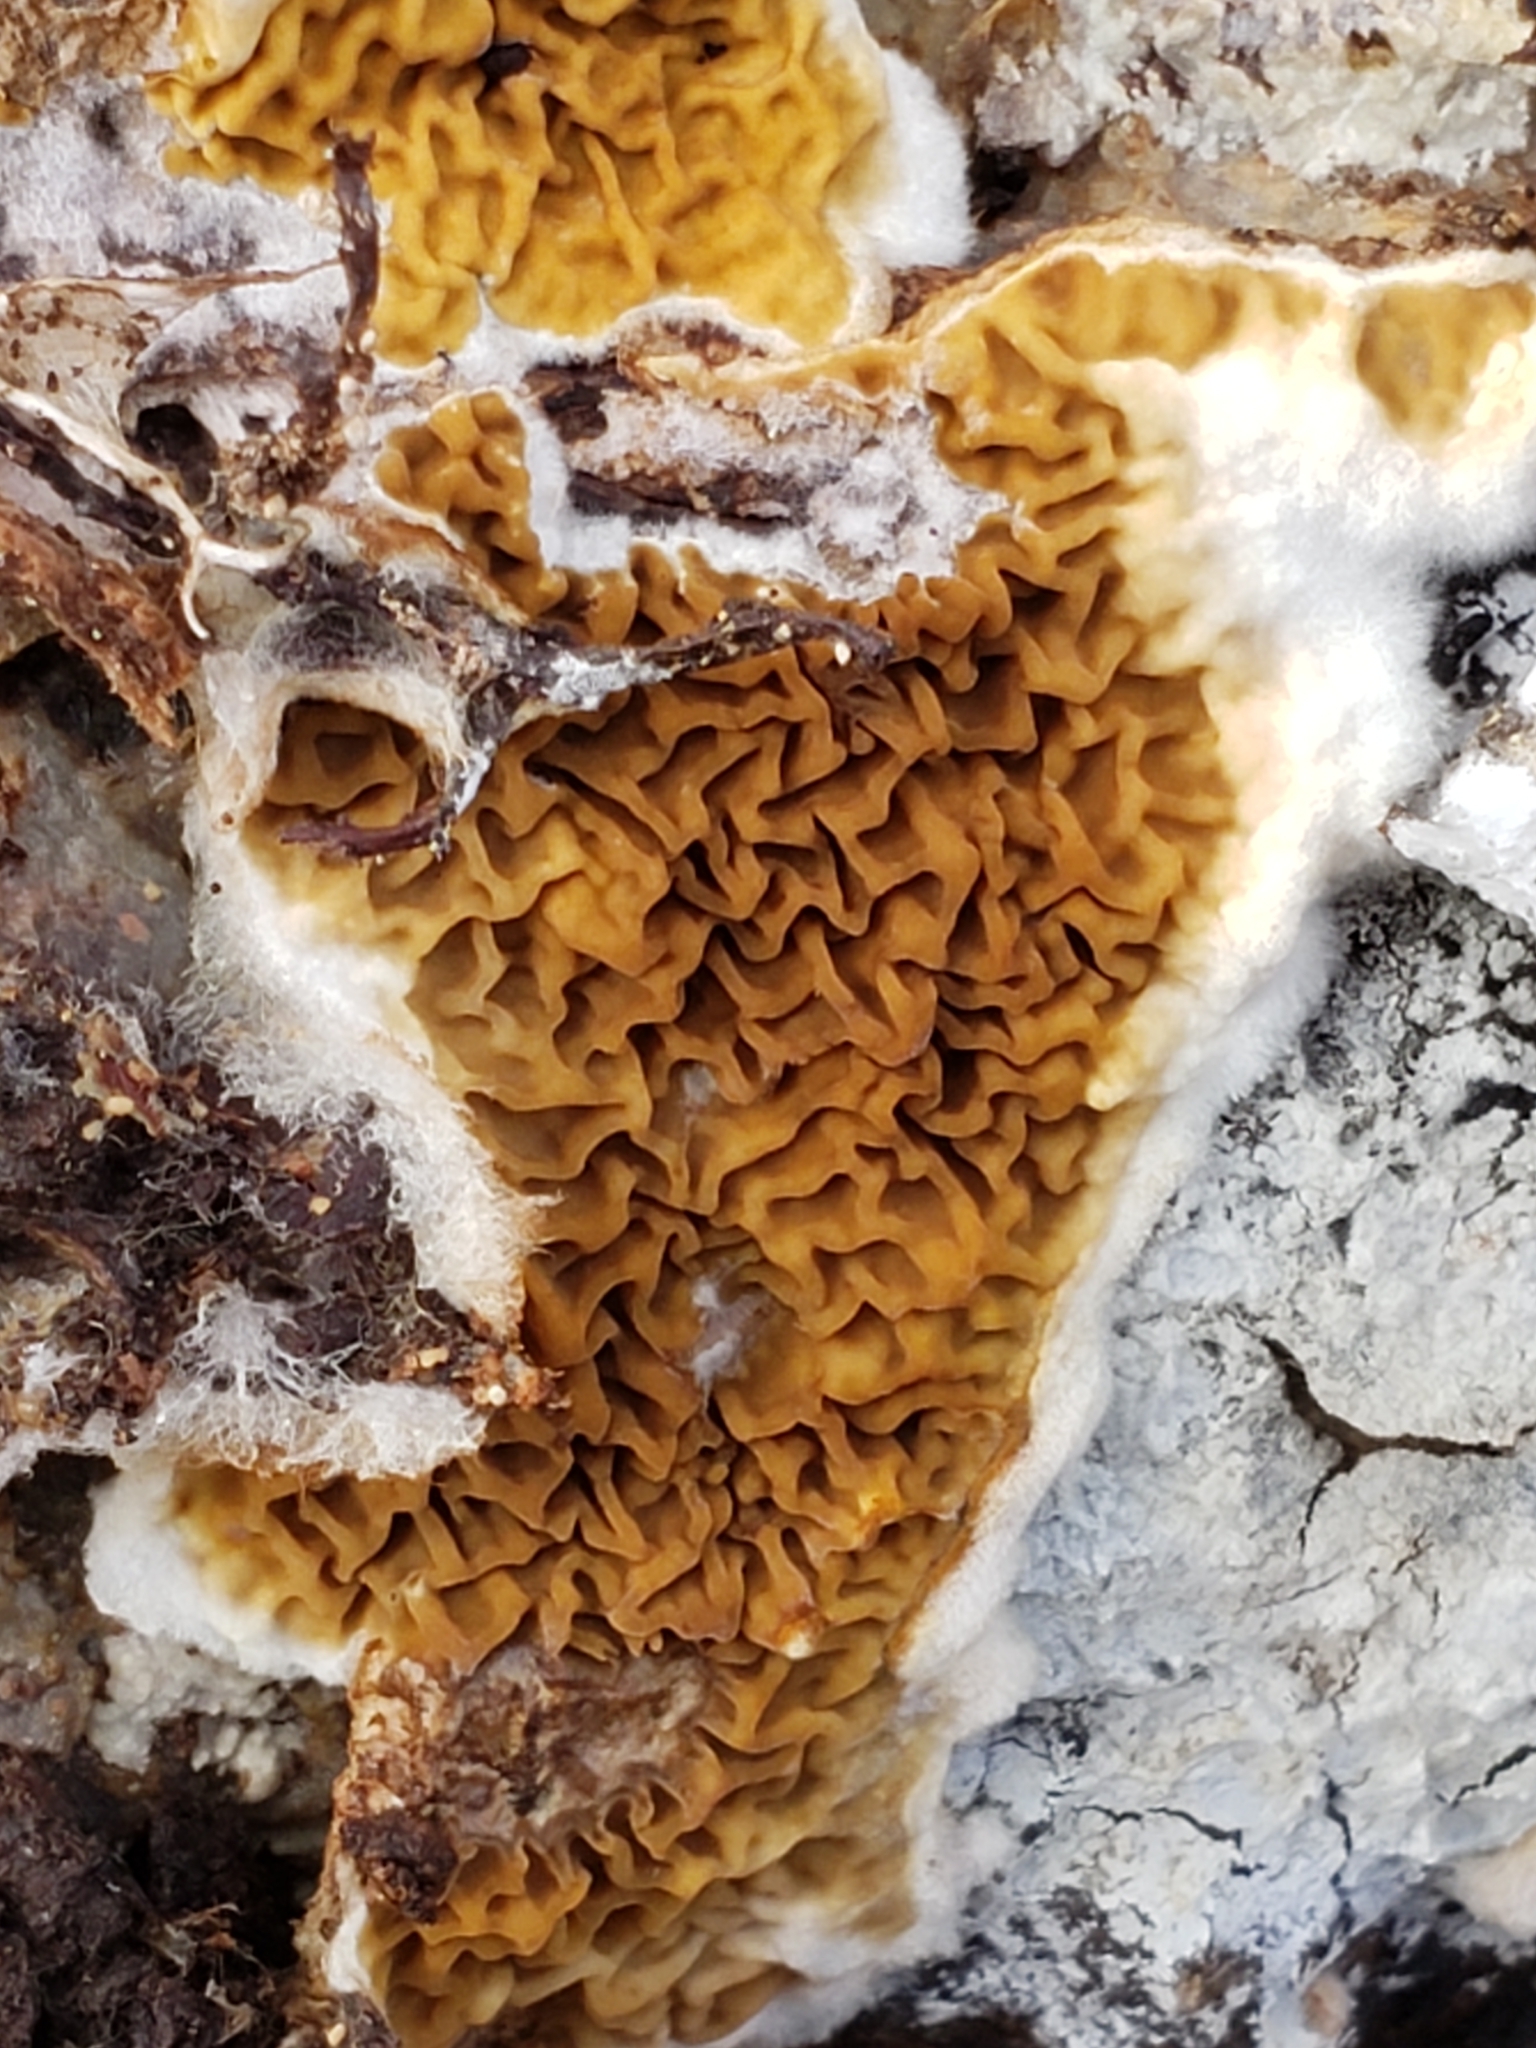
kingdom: Fungi
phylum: Basidiomycota
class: Agaricomycetes
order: Boletales
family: Serpulaceae
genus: Serpula
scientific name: Serpula himantioides
